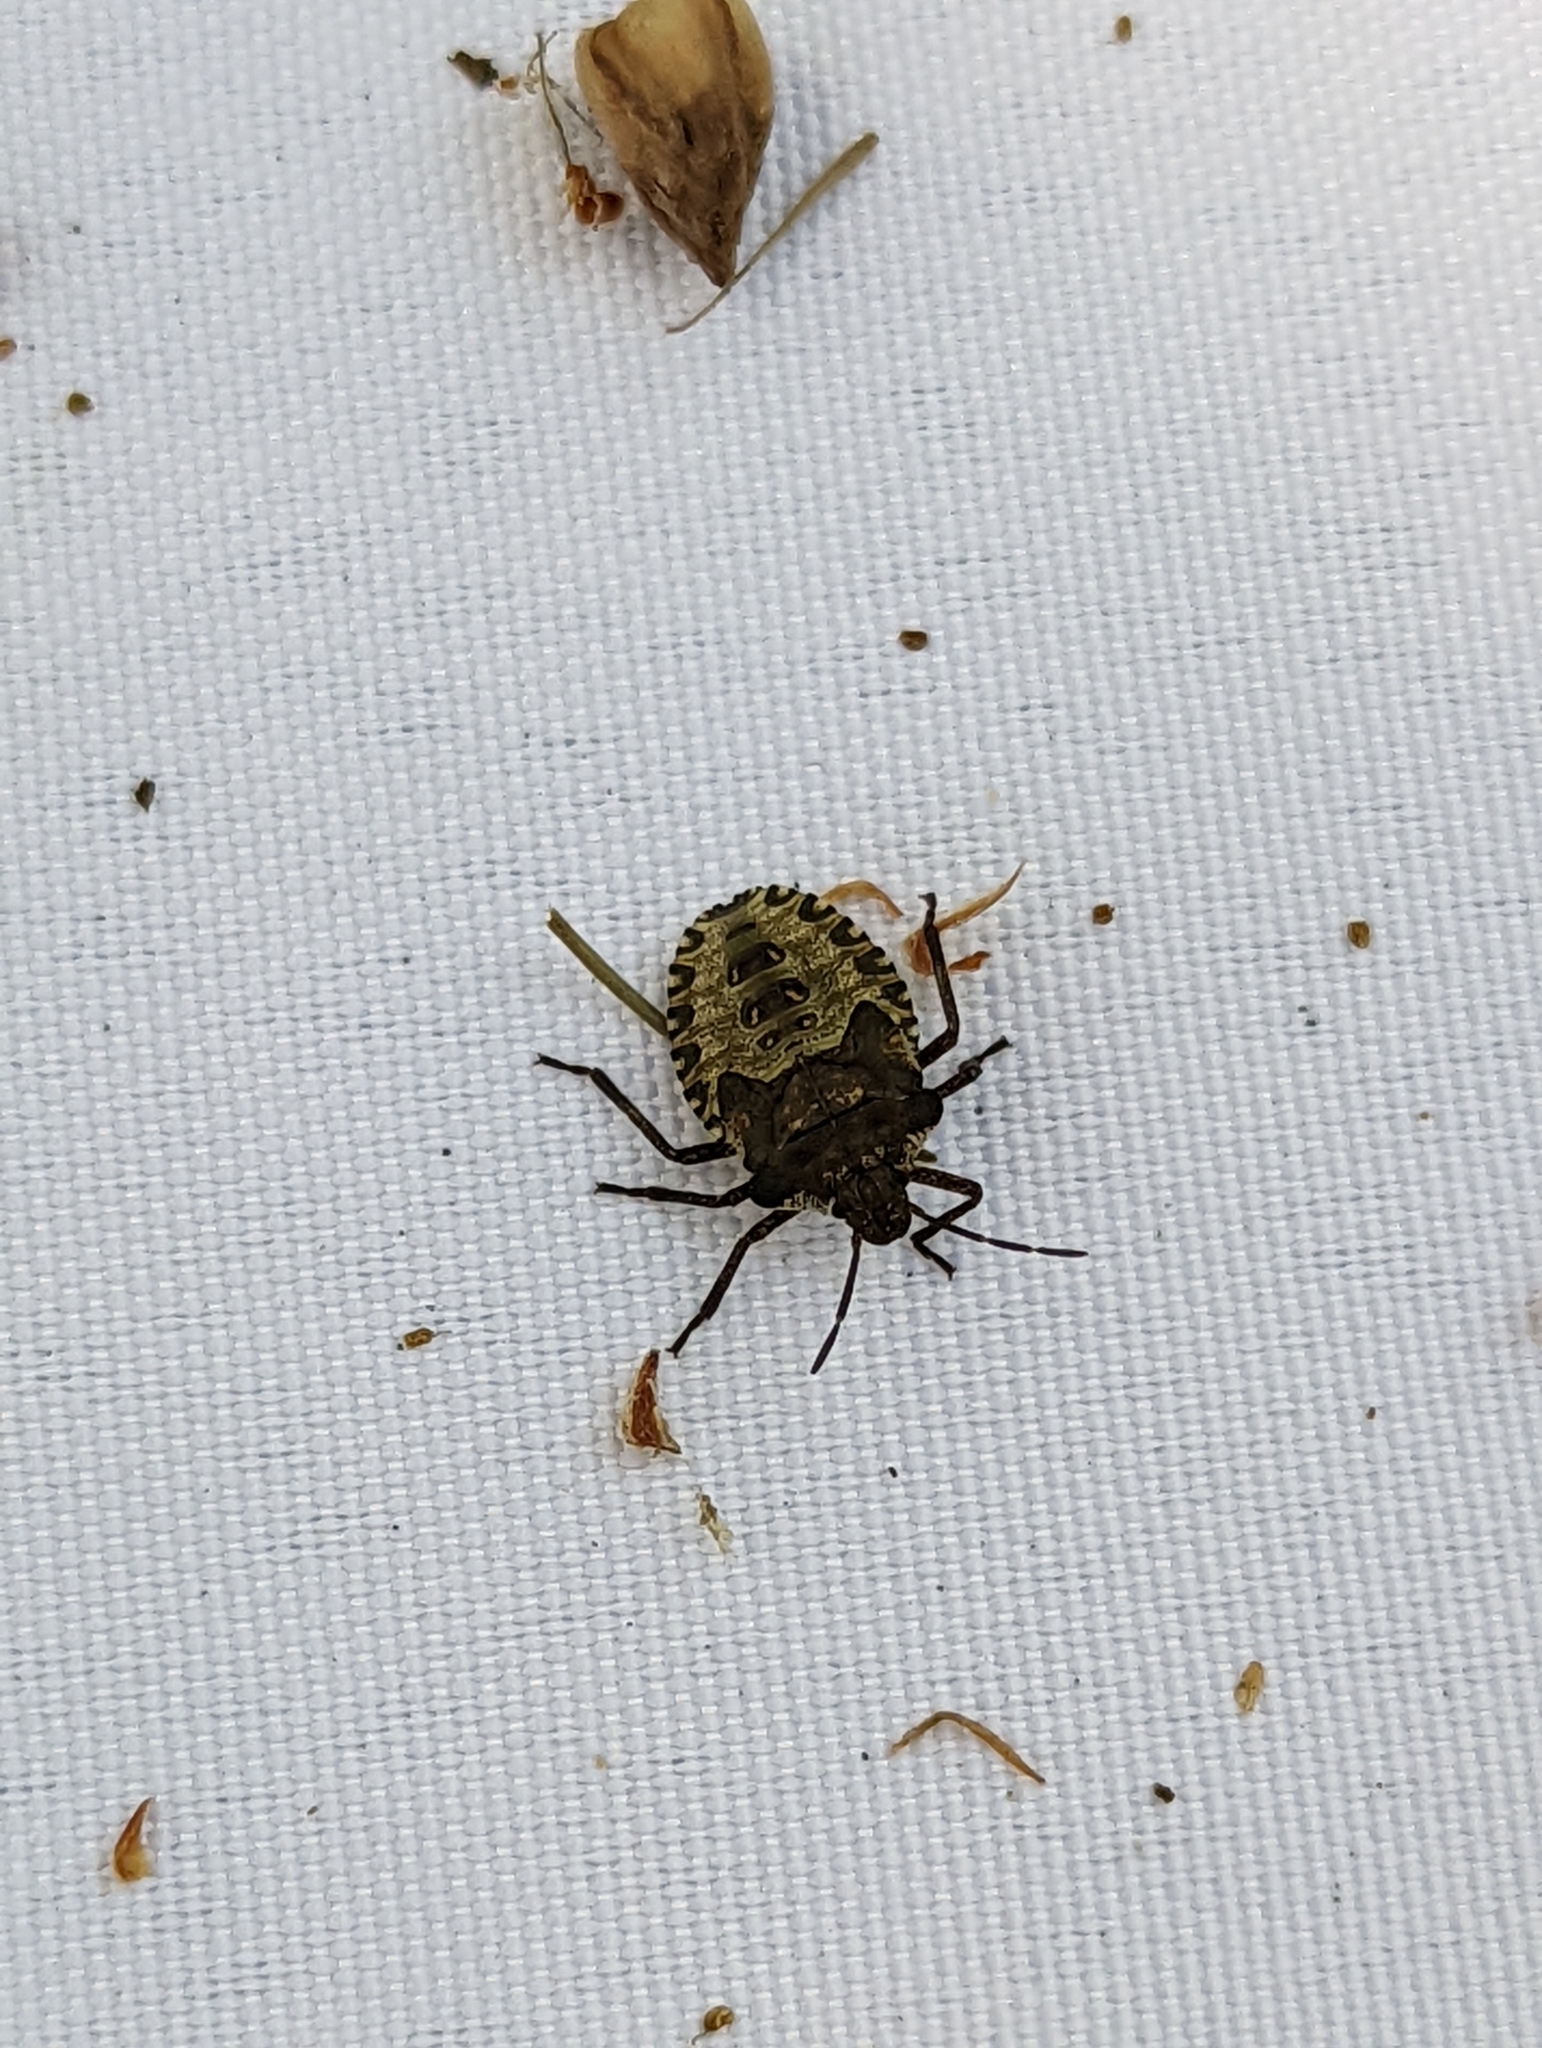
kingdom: Animalia
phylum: Arthropoda
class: Insecta
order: Hemiptera
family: Pentatomidae
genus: Pentatoma
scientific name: Pentatoma rufipes
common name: Forest bug
